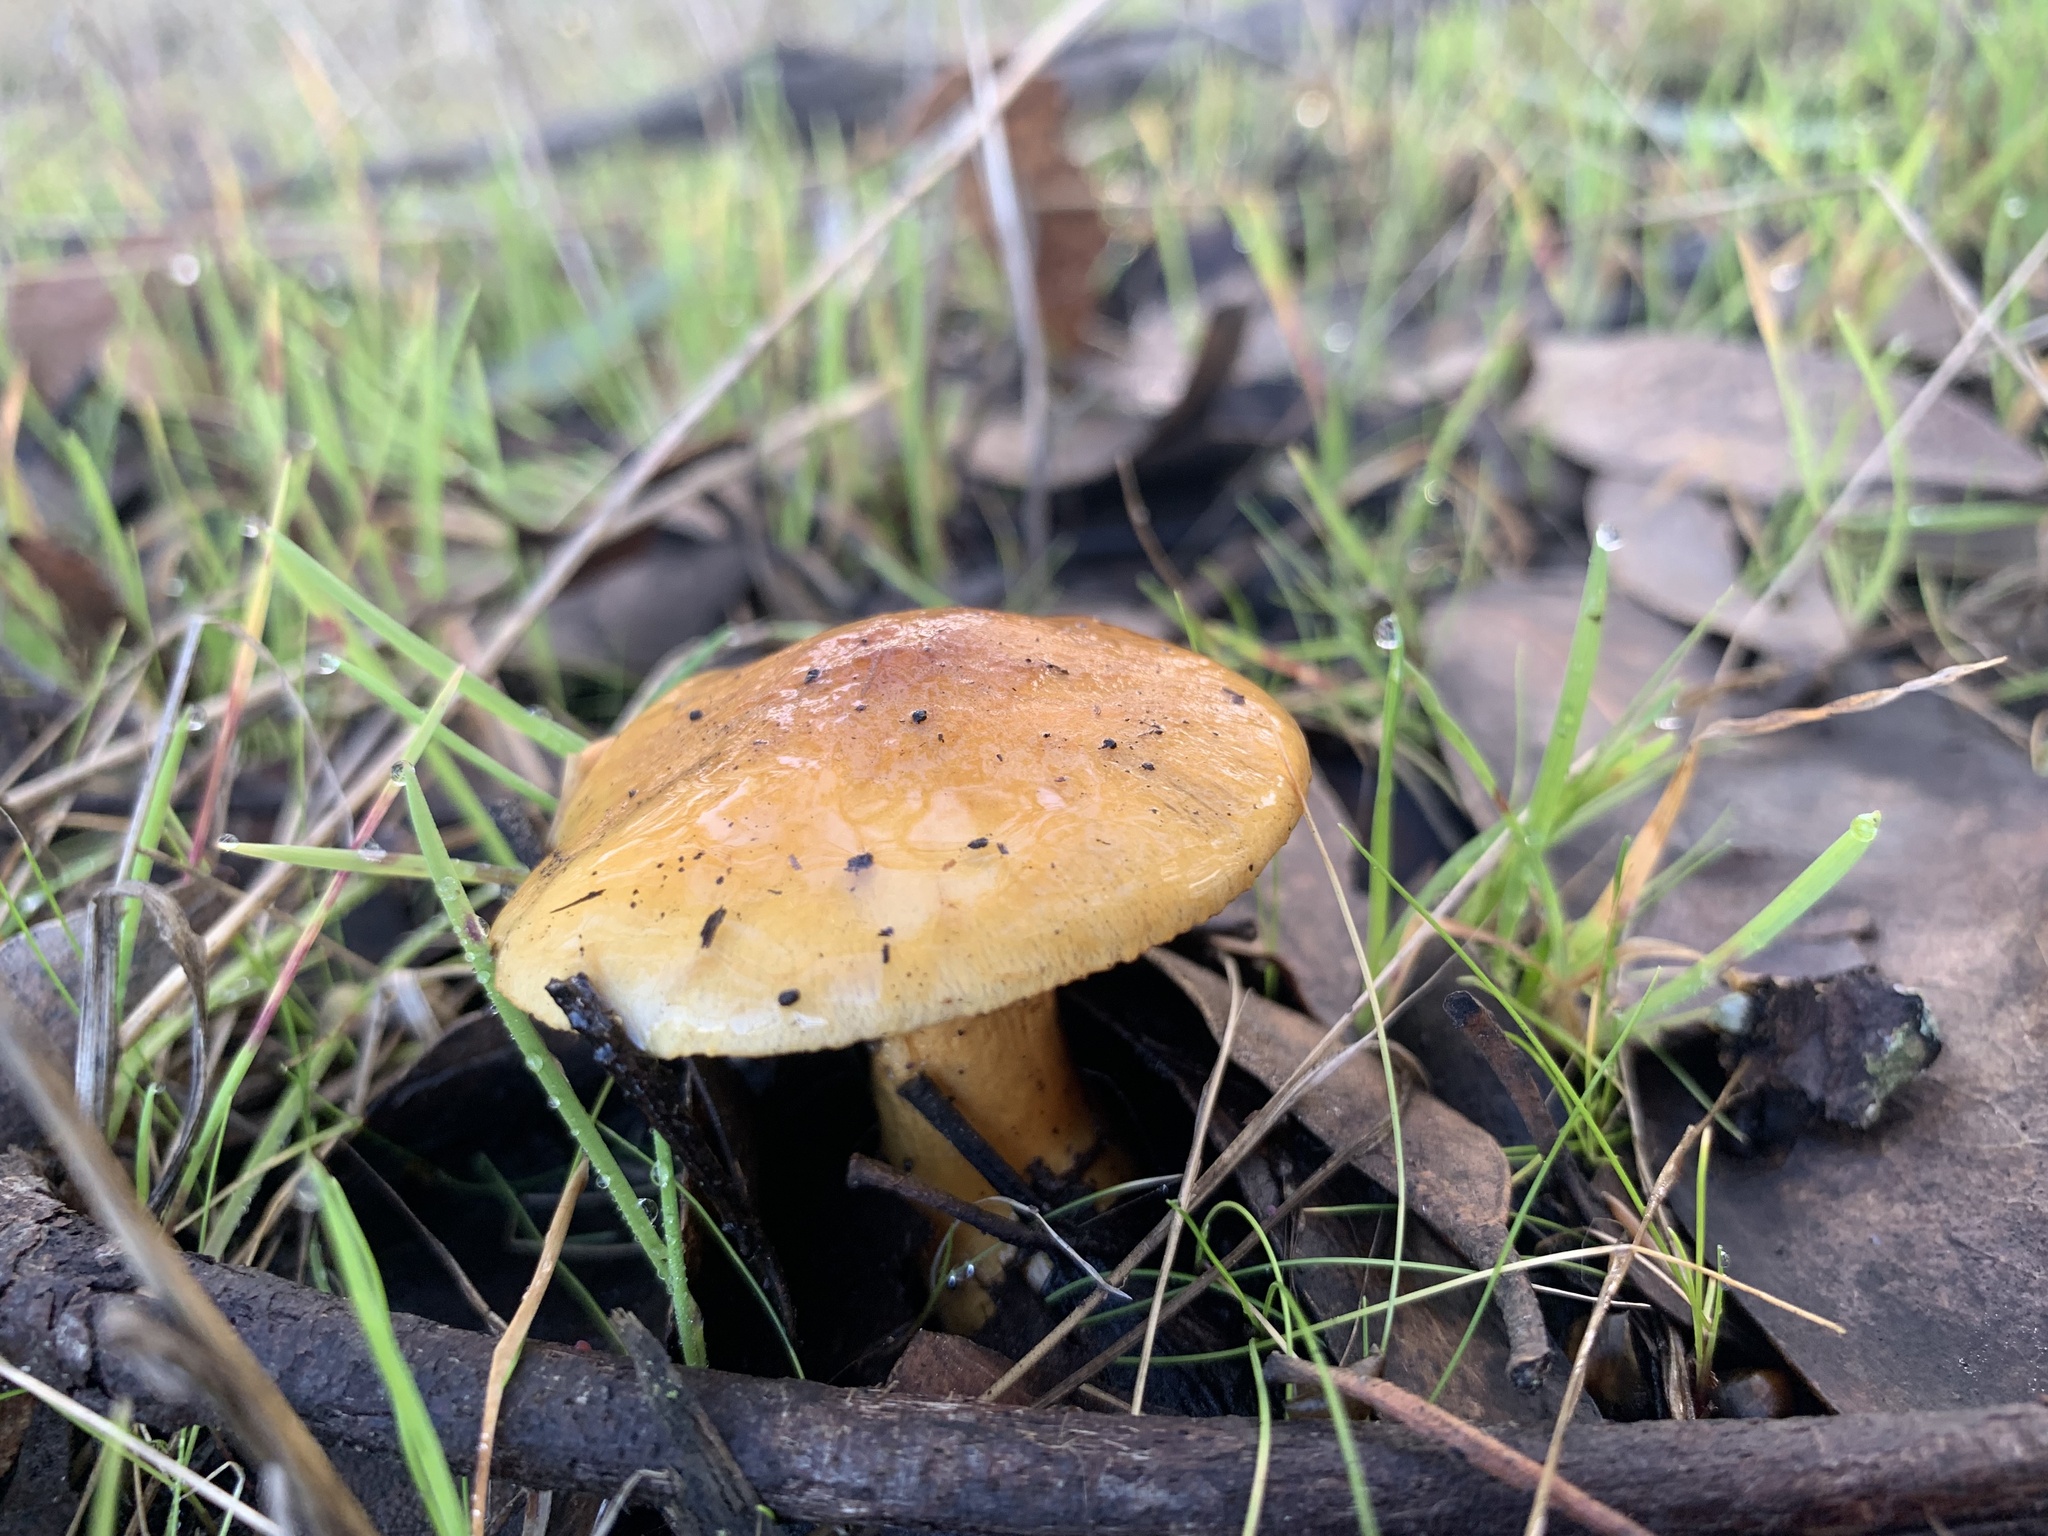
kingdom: Fungi
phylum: Basidiomycota
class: Agaricomycetes
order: Agaricales
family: Cortinariaceae
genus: Cortinarius
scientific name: Cortinarius sinapicolor
